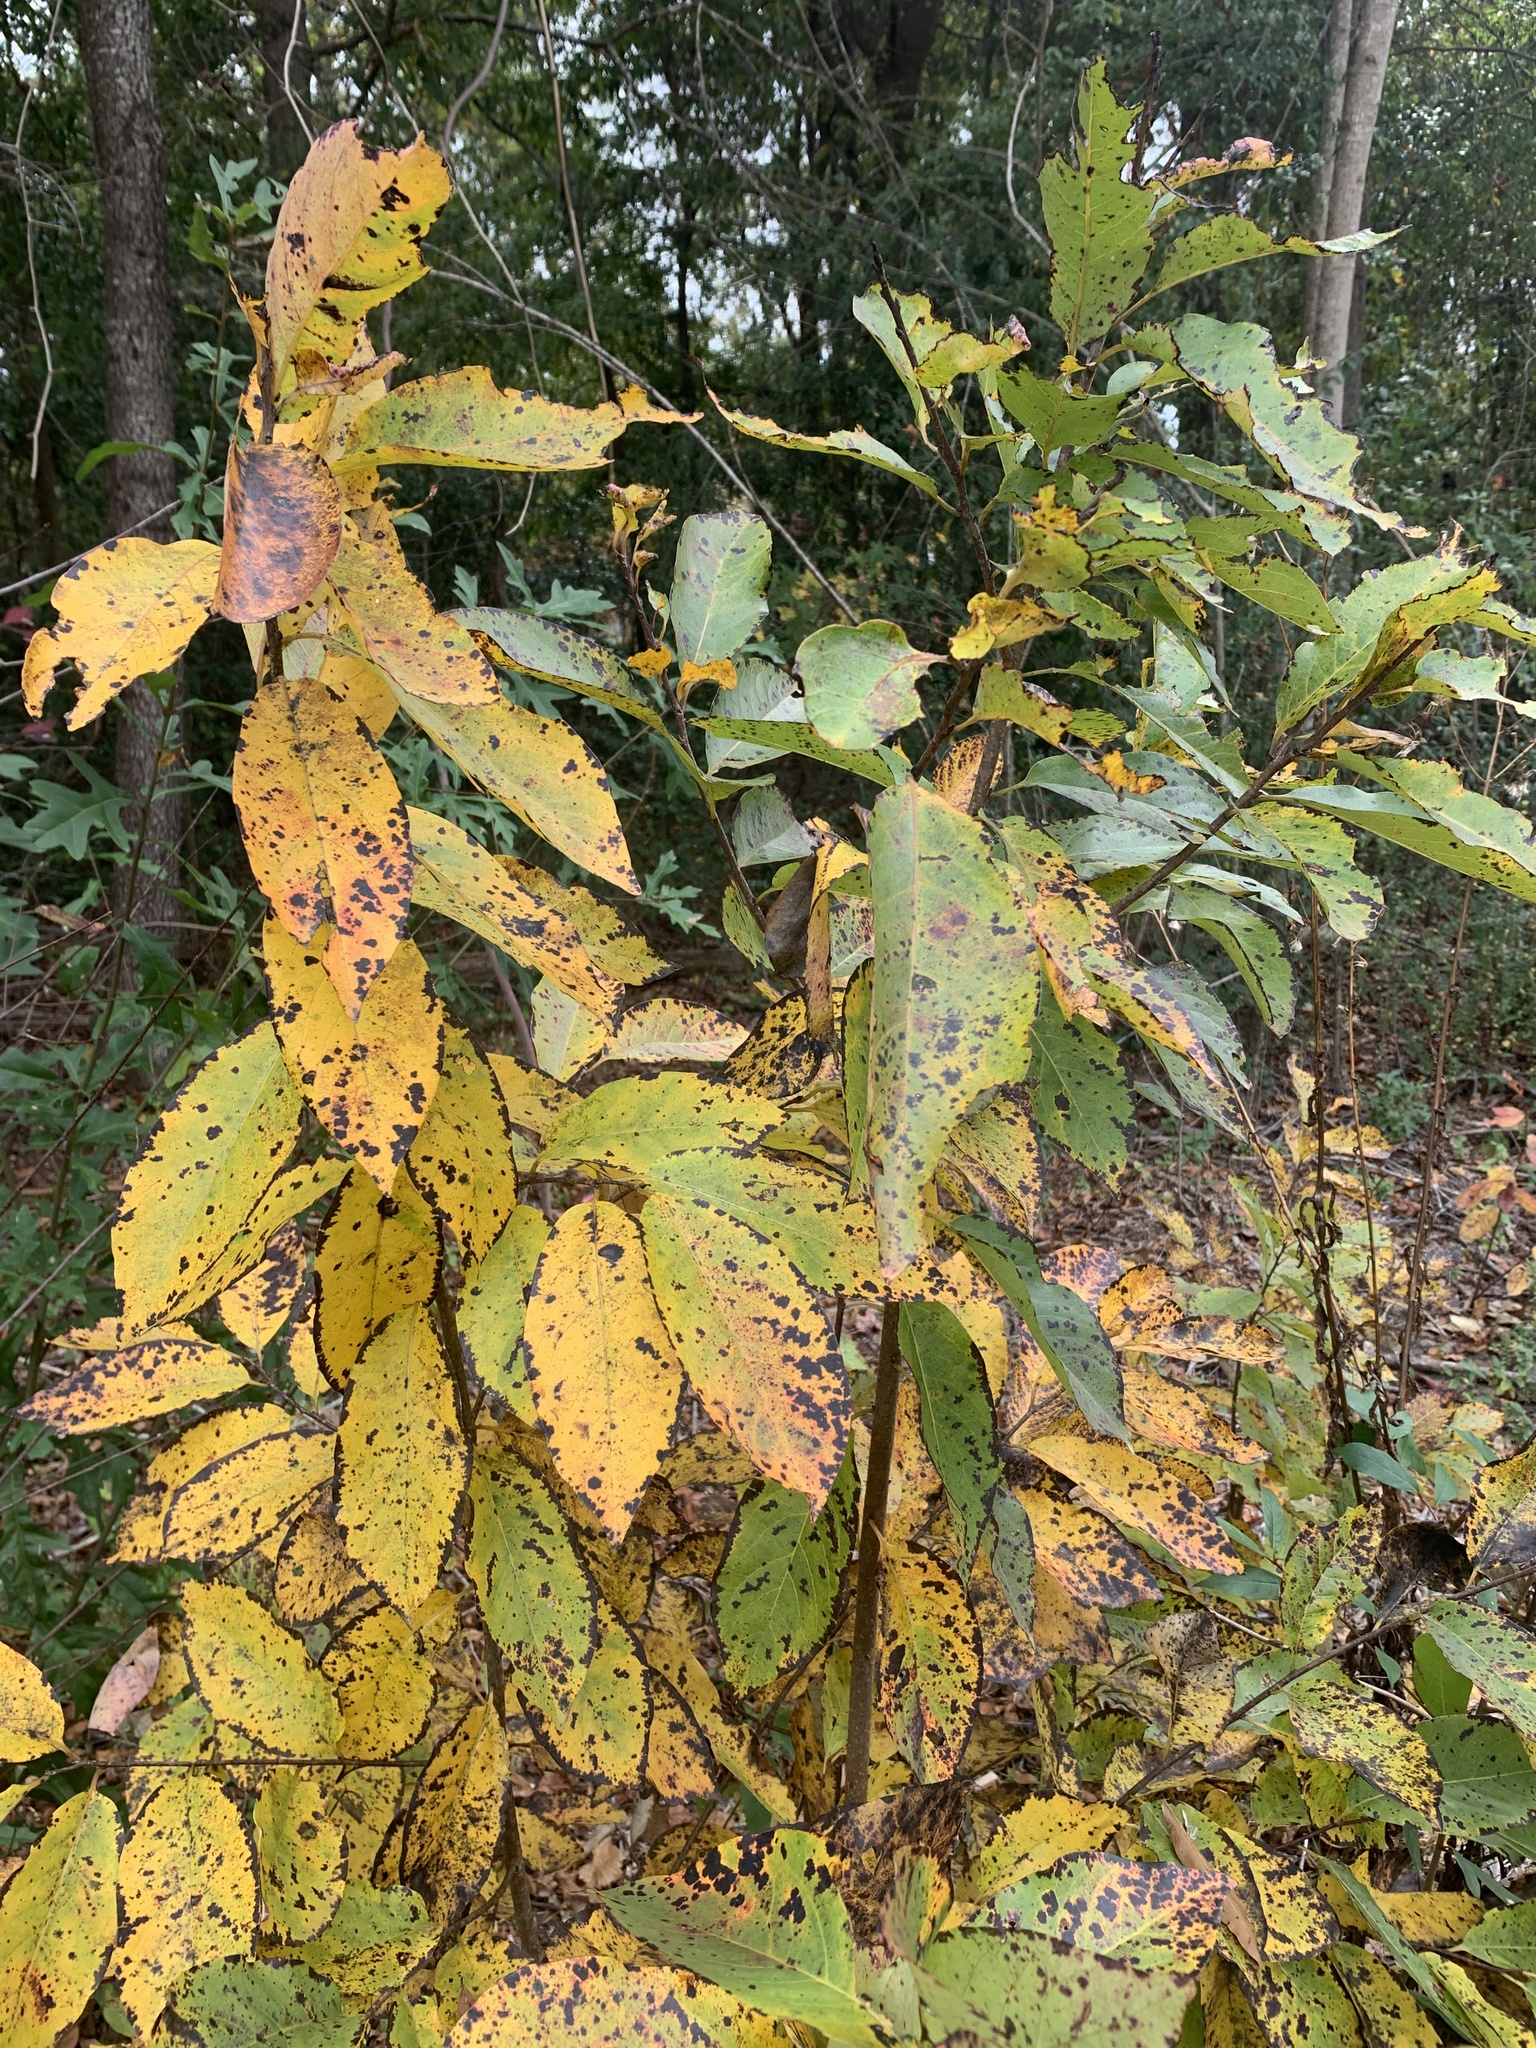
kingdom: Plantae
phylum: Tracheophyta
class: Magnoliopsida
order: Ericales
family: Ebenaceae
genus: Diospyros
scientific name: Diospyros virginiana
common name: Persimmon
